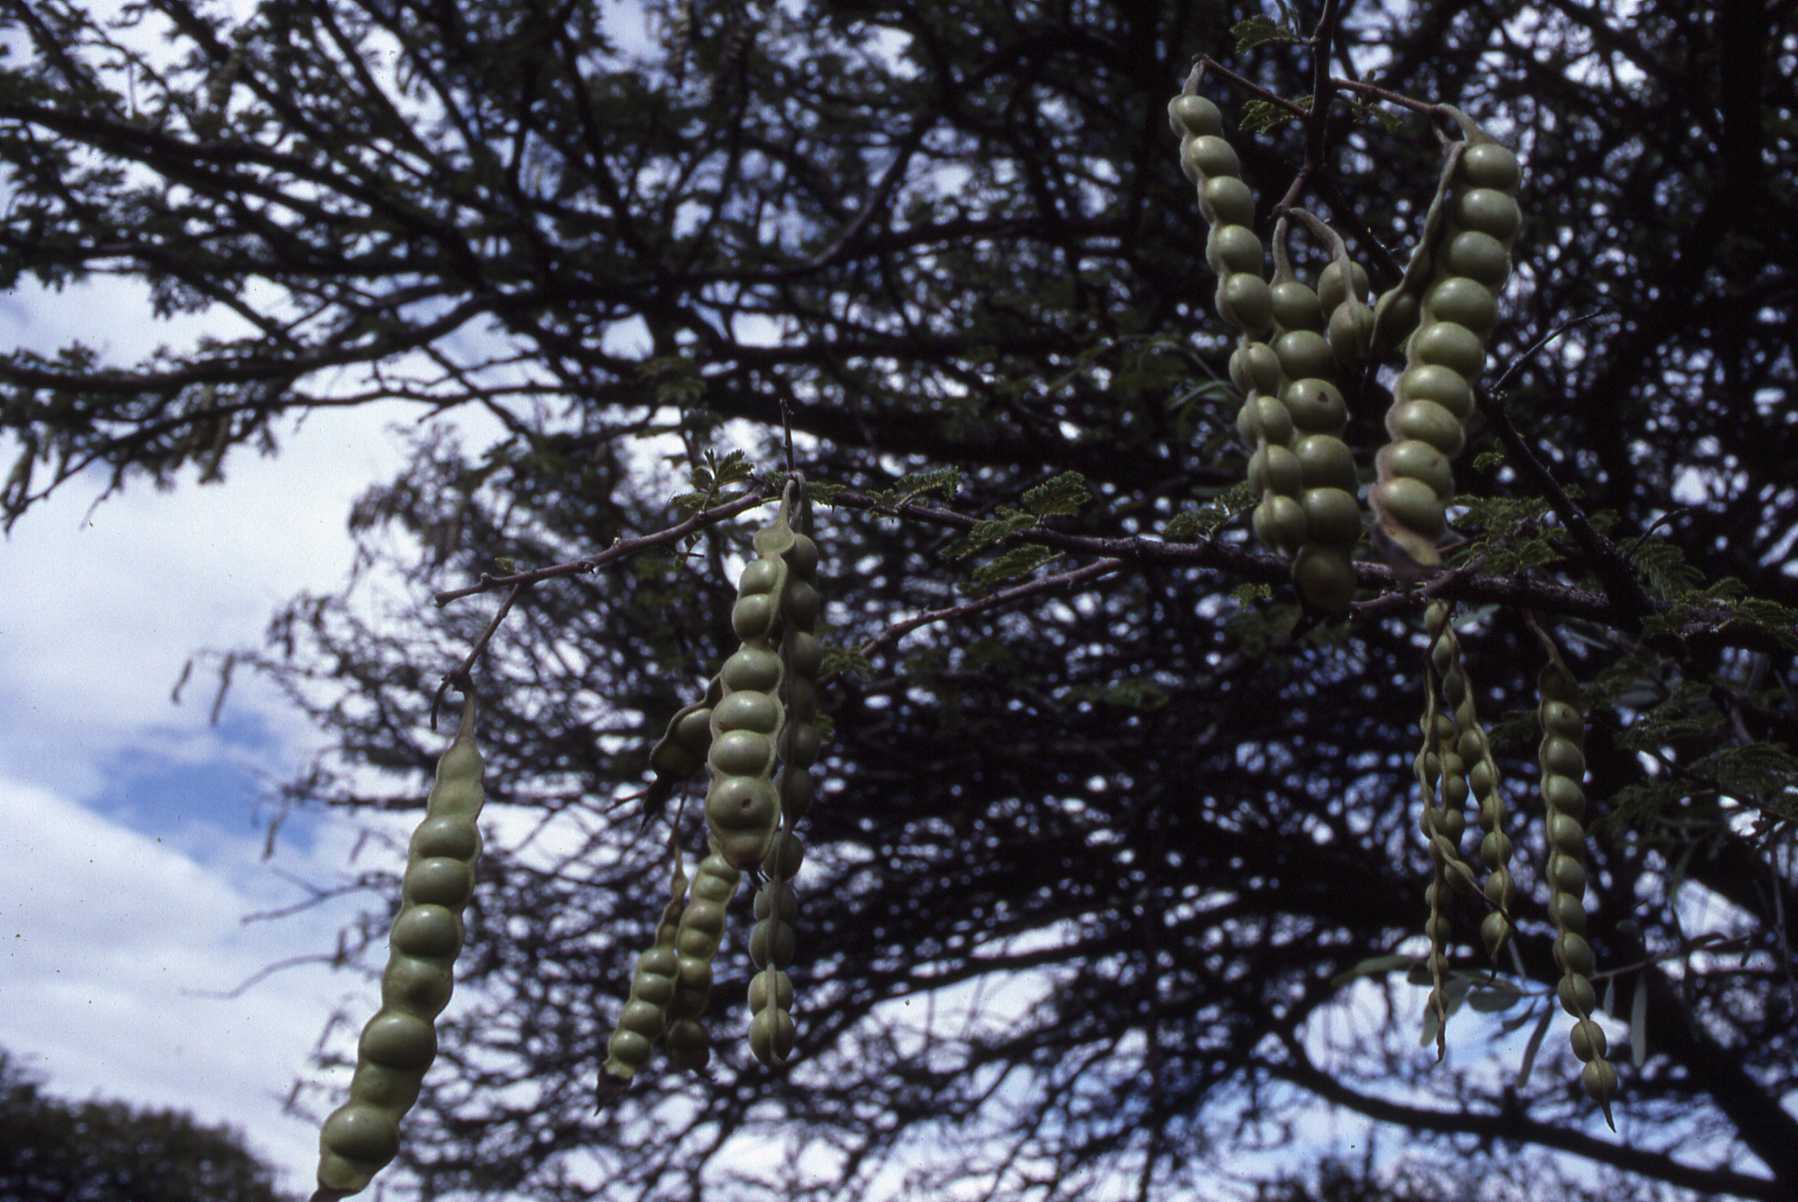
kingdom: Plantae
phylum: Tracheophyta
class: Magnoliopsida
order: Fabales
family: Fabaceae
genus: Vachellia
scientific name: Vachellia nilotica
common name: Arabic gumtree
